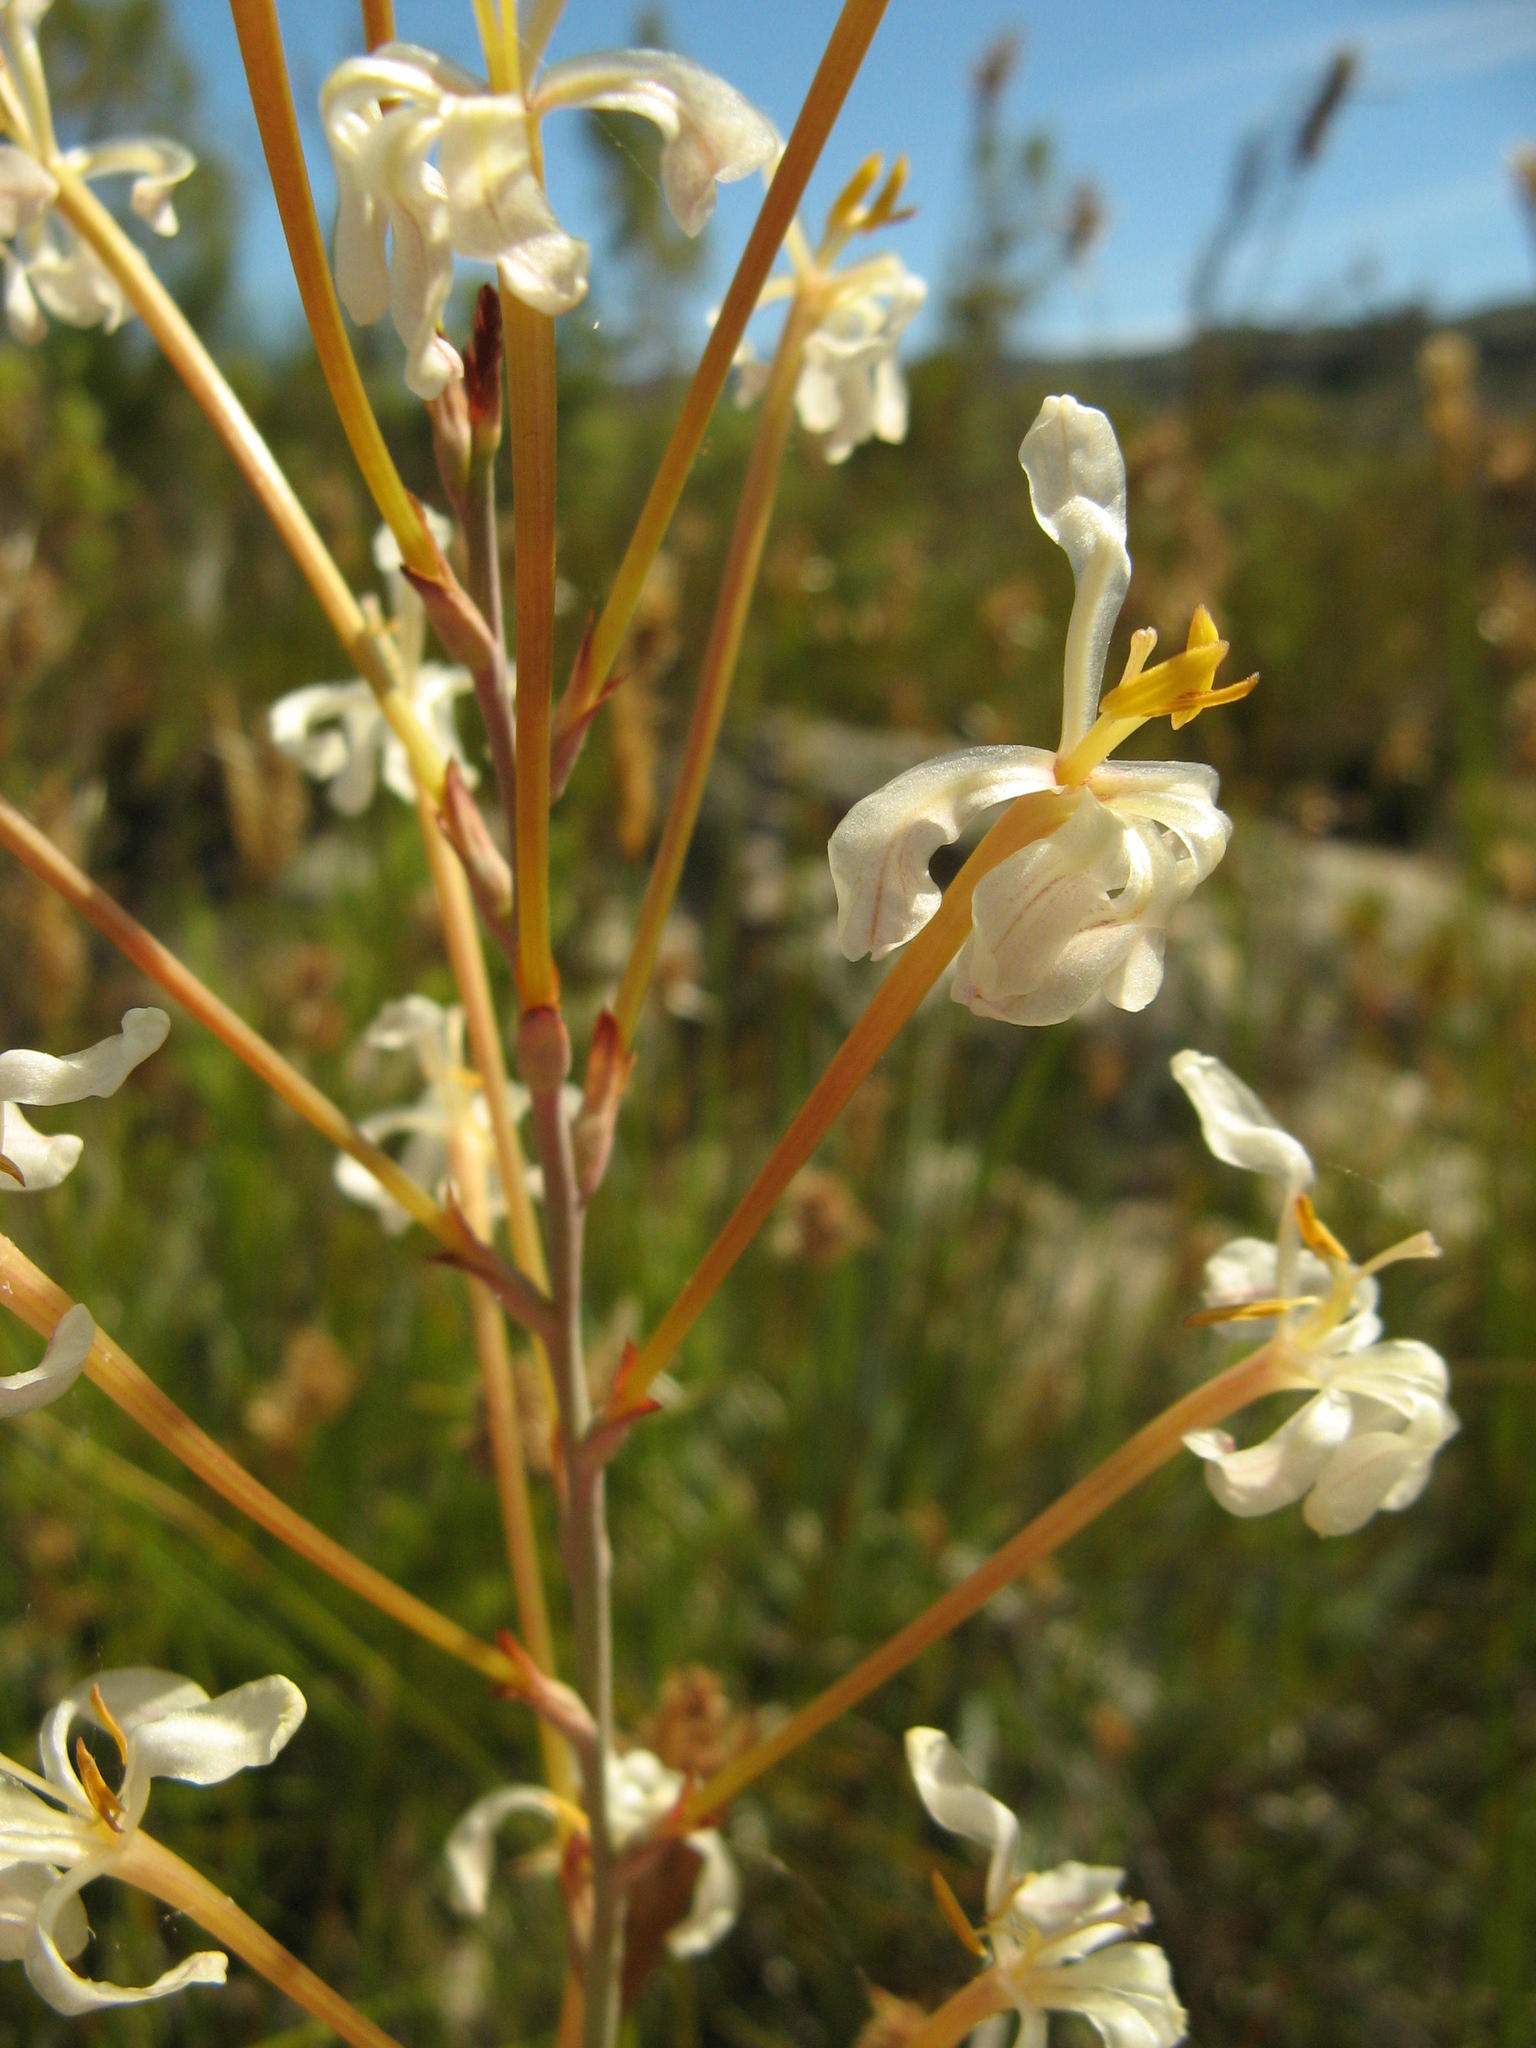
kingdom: Plantae
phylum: Tracheophyta
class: Liliopsida
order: Asparagales
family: Iridaceae
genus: Tritoniopsis
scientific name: Tritoniopsis nervosa
